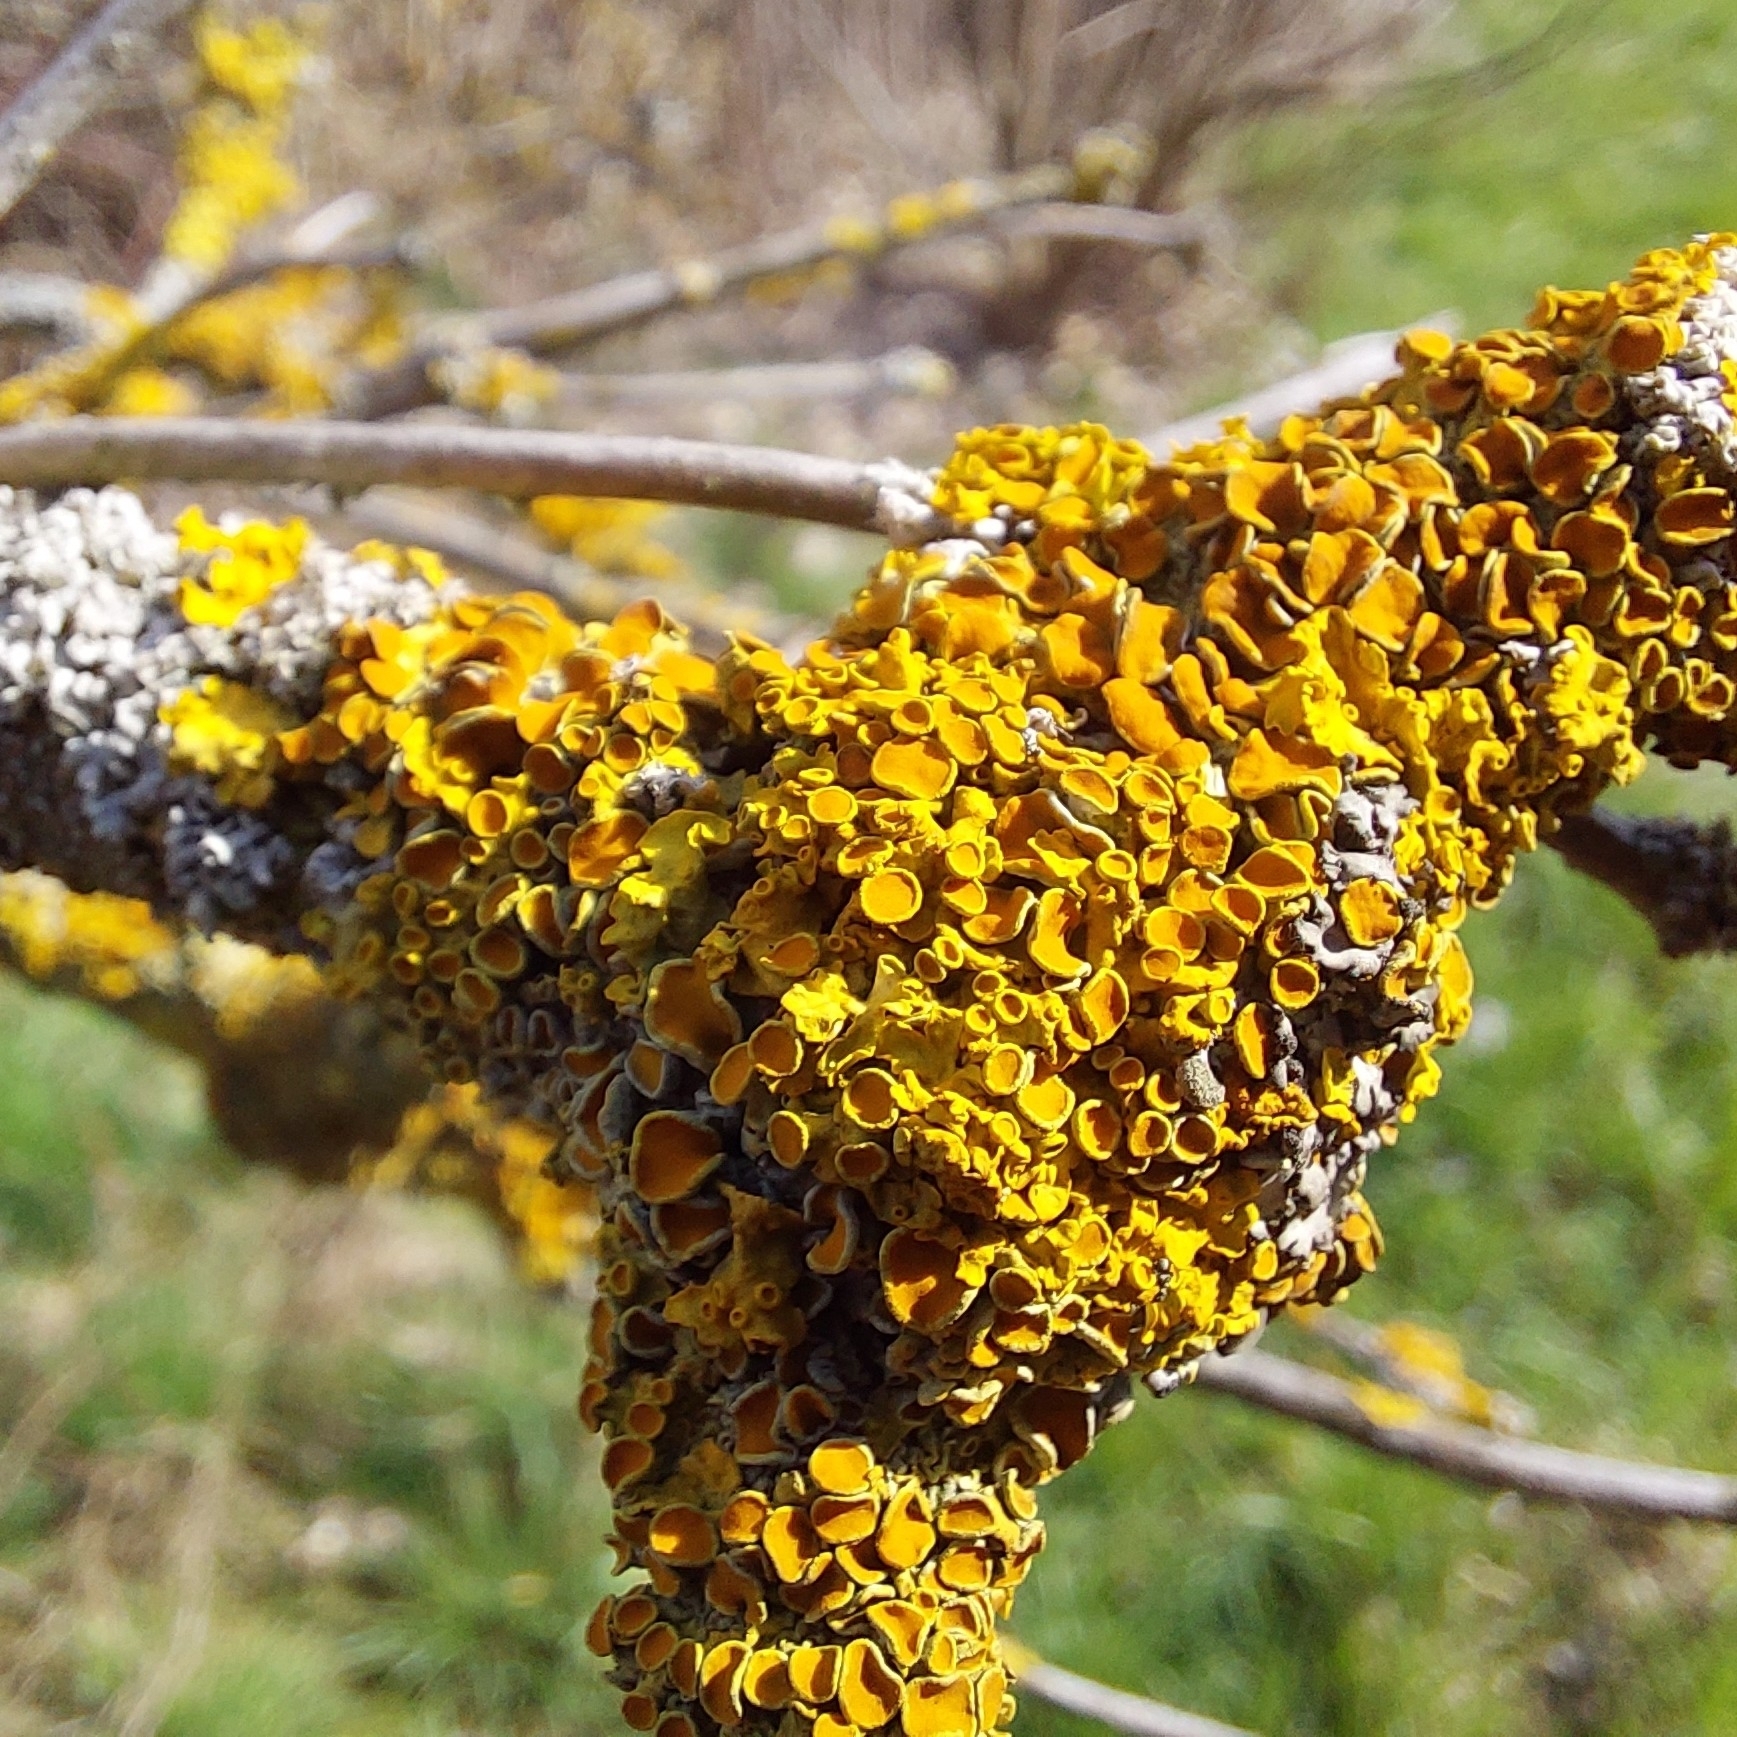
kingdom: Fungi
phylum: Ascomycota
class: Lecanoromycetes
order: Teloschistales
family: Teloschistaceae
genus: Xanthoria
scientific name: Xanthoria parietina
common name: Common orange lichen
